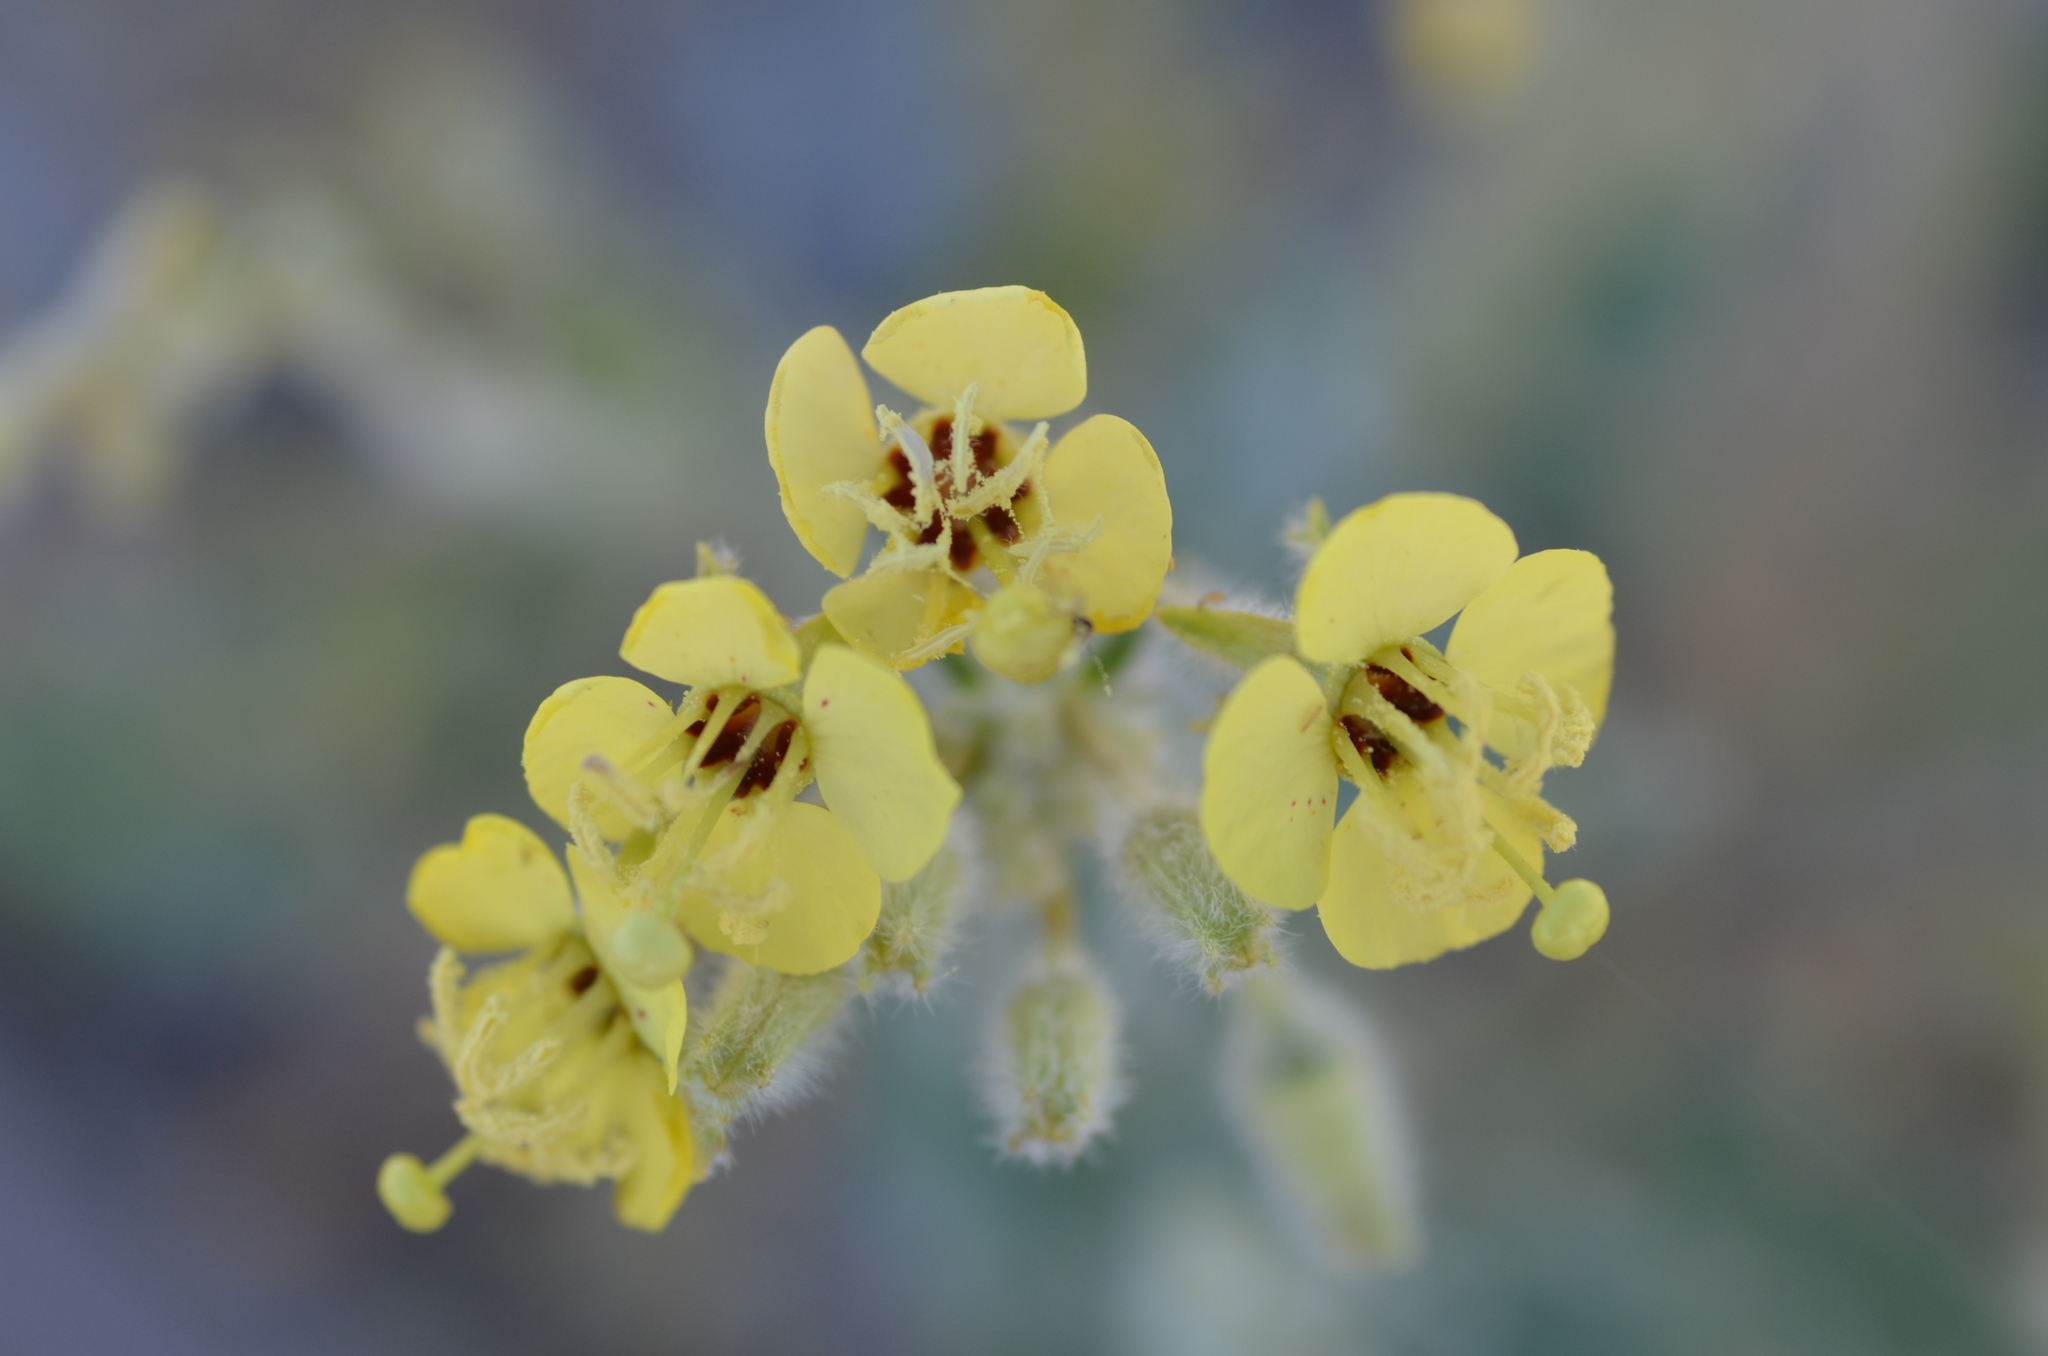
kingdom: Plantae
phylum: Tracheophyta
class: Magnoliopsida
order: Myrtales
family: Onagraceae
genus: Chylismia
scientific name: Chylismia claviformis
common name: Browneyes
